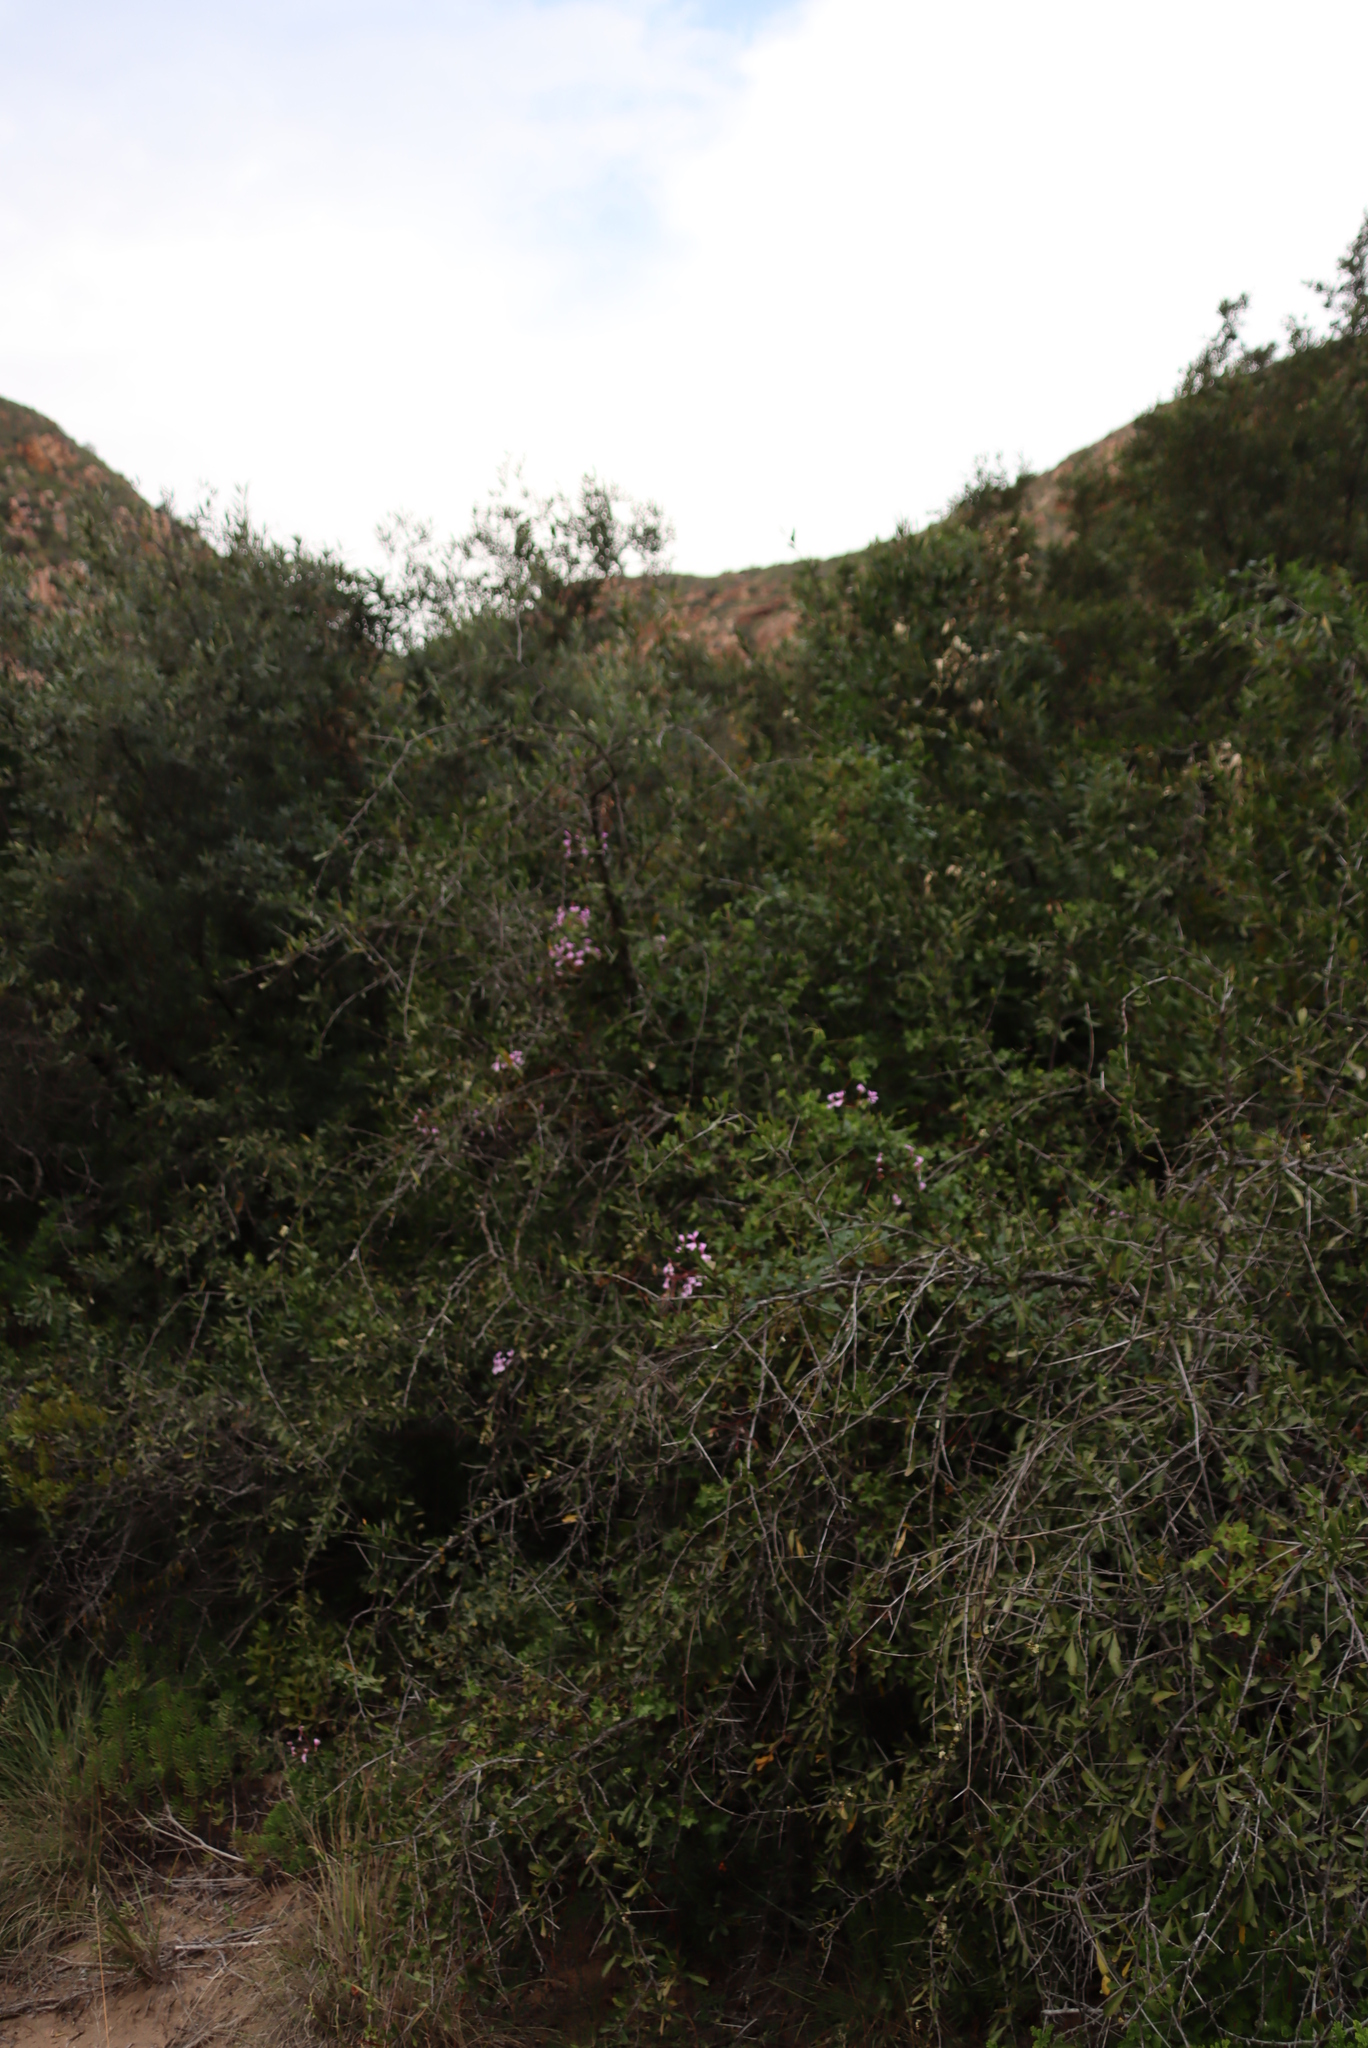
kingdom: Plantae
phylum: Tracheophyta
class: Magnoliopsida
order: Geraniales
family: Geraniaceae
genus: Pelargonium
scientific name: Pelargonium peltatum
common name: Ivyleaf geranium
